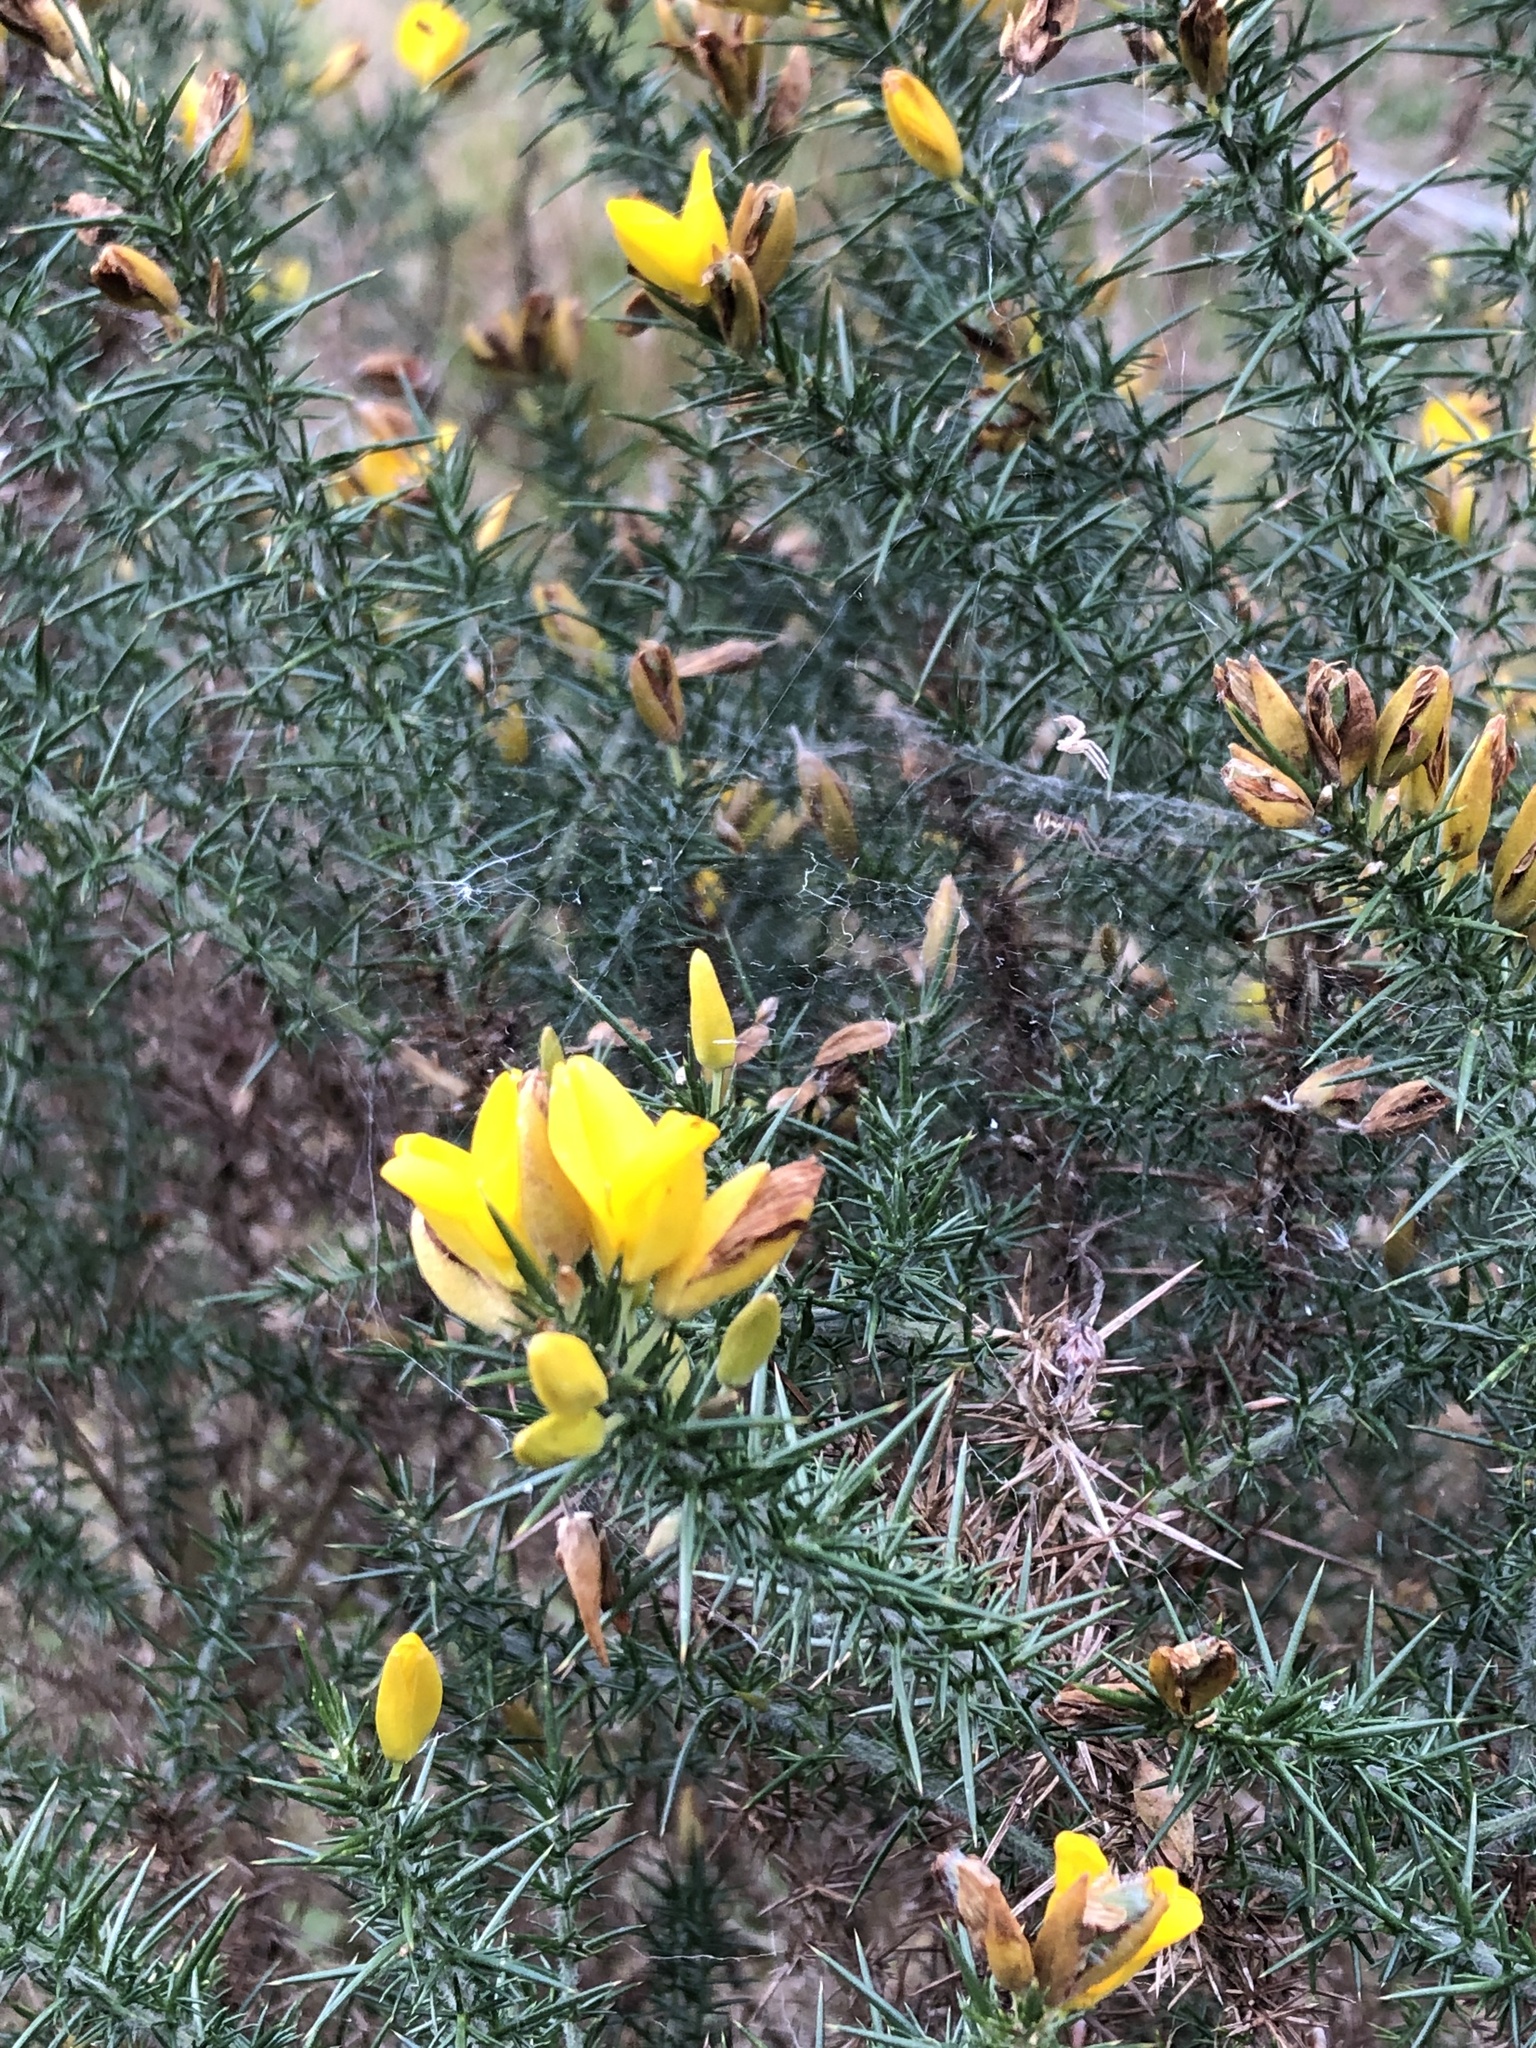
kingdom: Plantae
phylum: Tracheophyta
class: Magnoliopsida
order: Fabales
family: Fabaceae
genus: Ulex
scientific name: Ulex europaeus
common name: Common gorse
